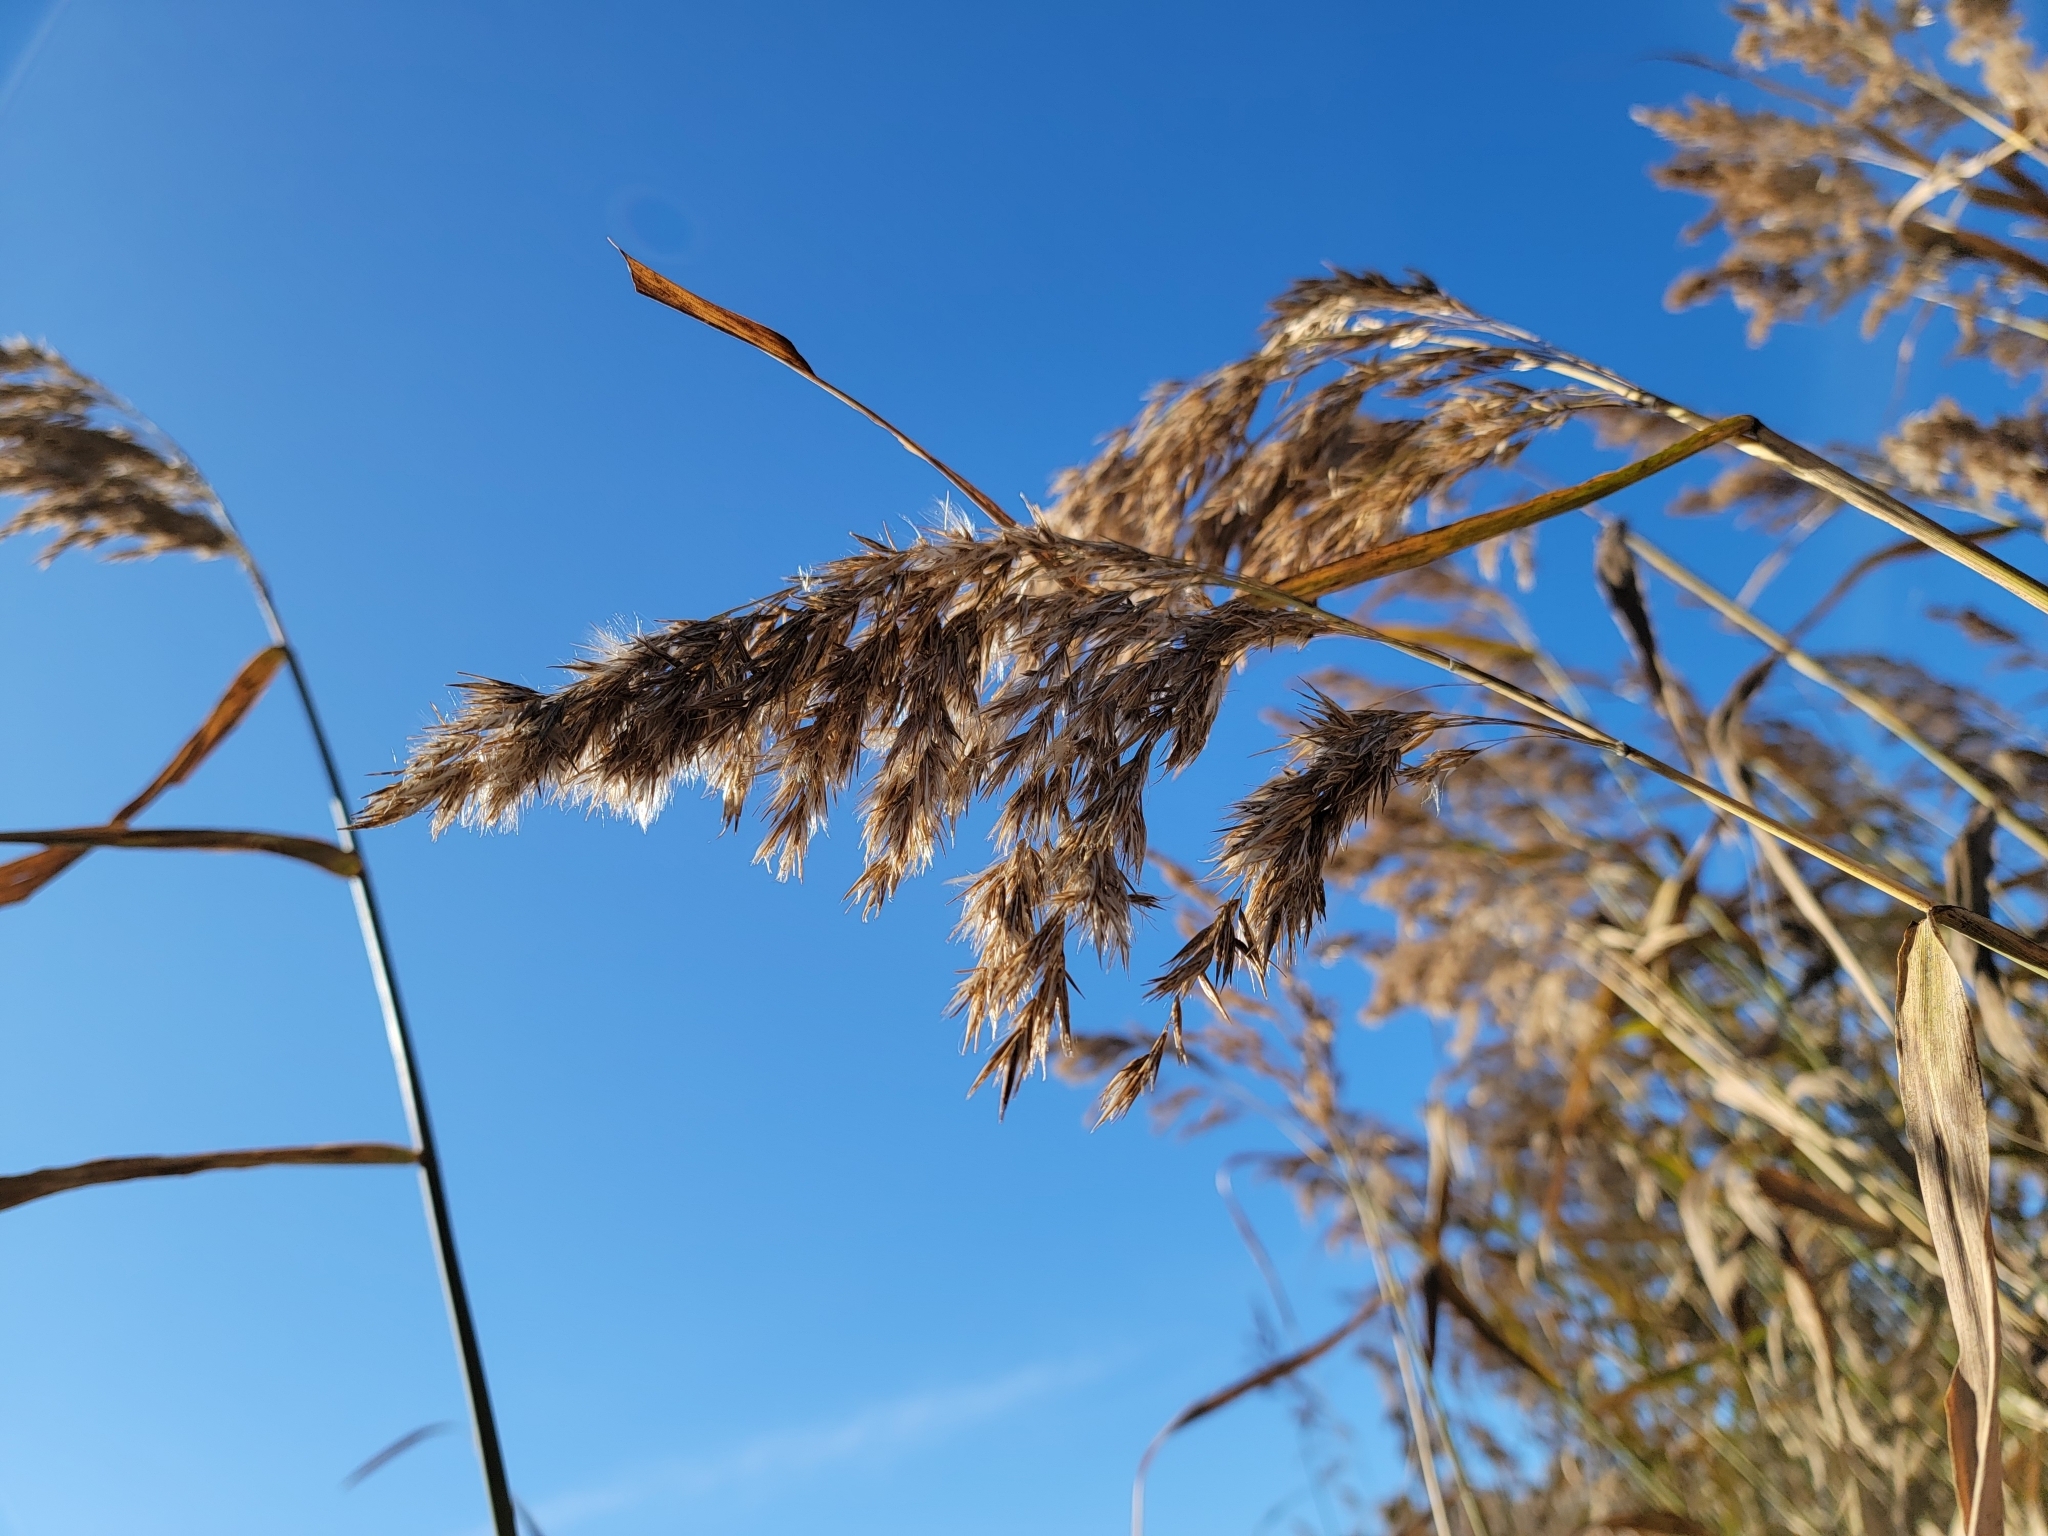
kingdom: Plantae
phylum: Tracheophyta
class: Liliopsida
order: Poales
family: Poaceae
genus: Phragmites
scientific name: Phragmites australis
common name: Common reed
